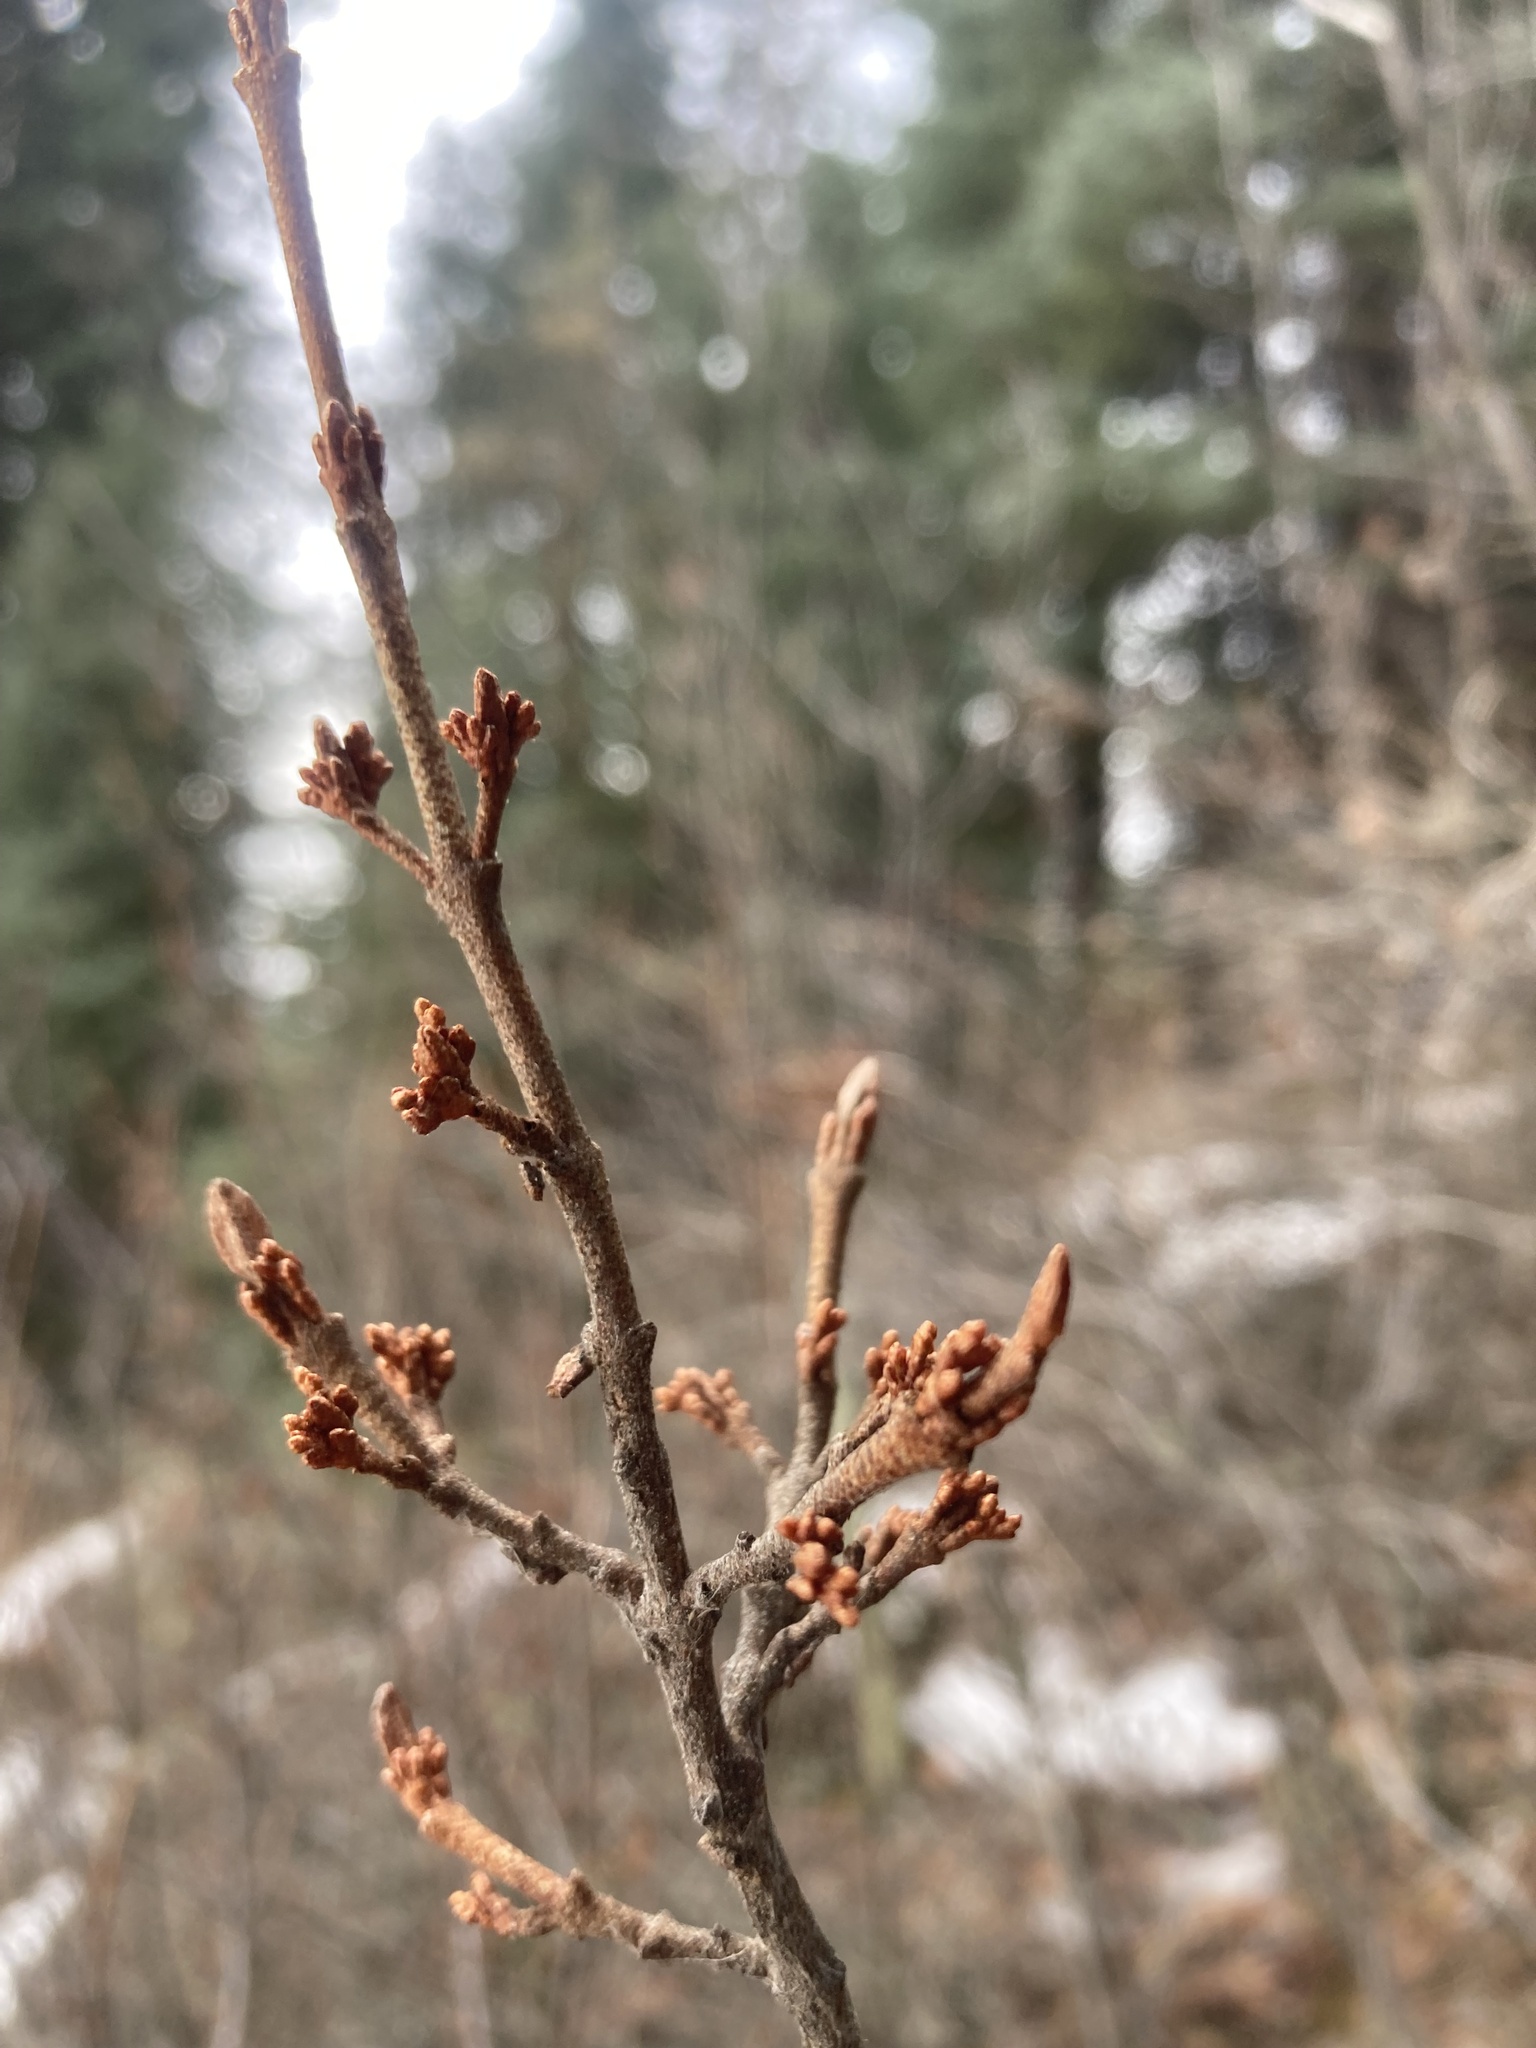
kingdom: Plantae
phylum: Tracheophyta
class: Magnoliopsida
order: Rosales
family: Elaeagnaceae
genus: Shepherdia
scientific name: Shepherdia canadensis
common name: Soapberry
